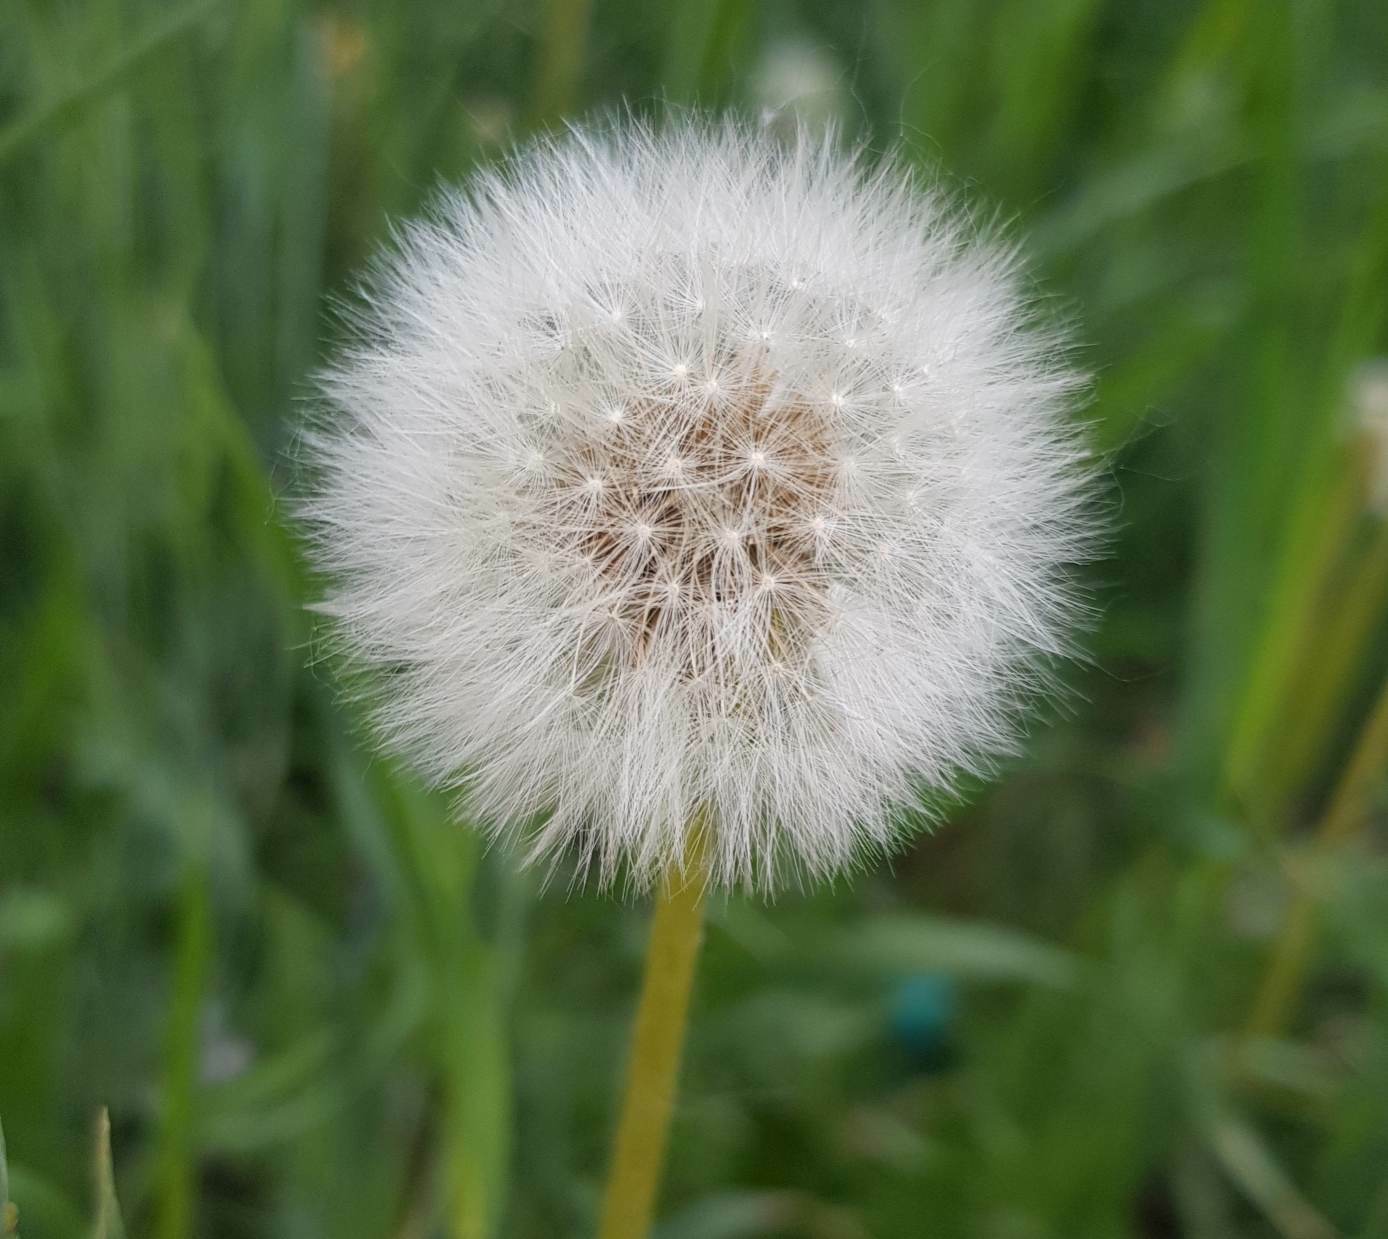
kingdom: Plantae
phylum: Tracheophyta
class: Magnoliopsida
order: Asterales
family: Asteraceae
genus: Taraxacum
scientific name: Taraxacum mongolicum
